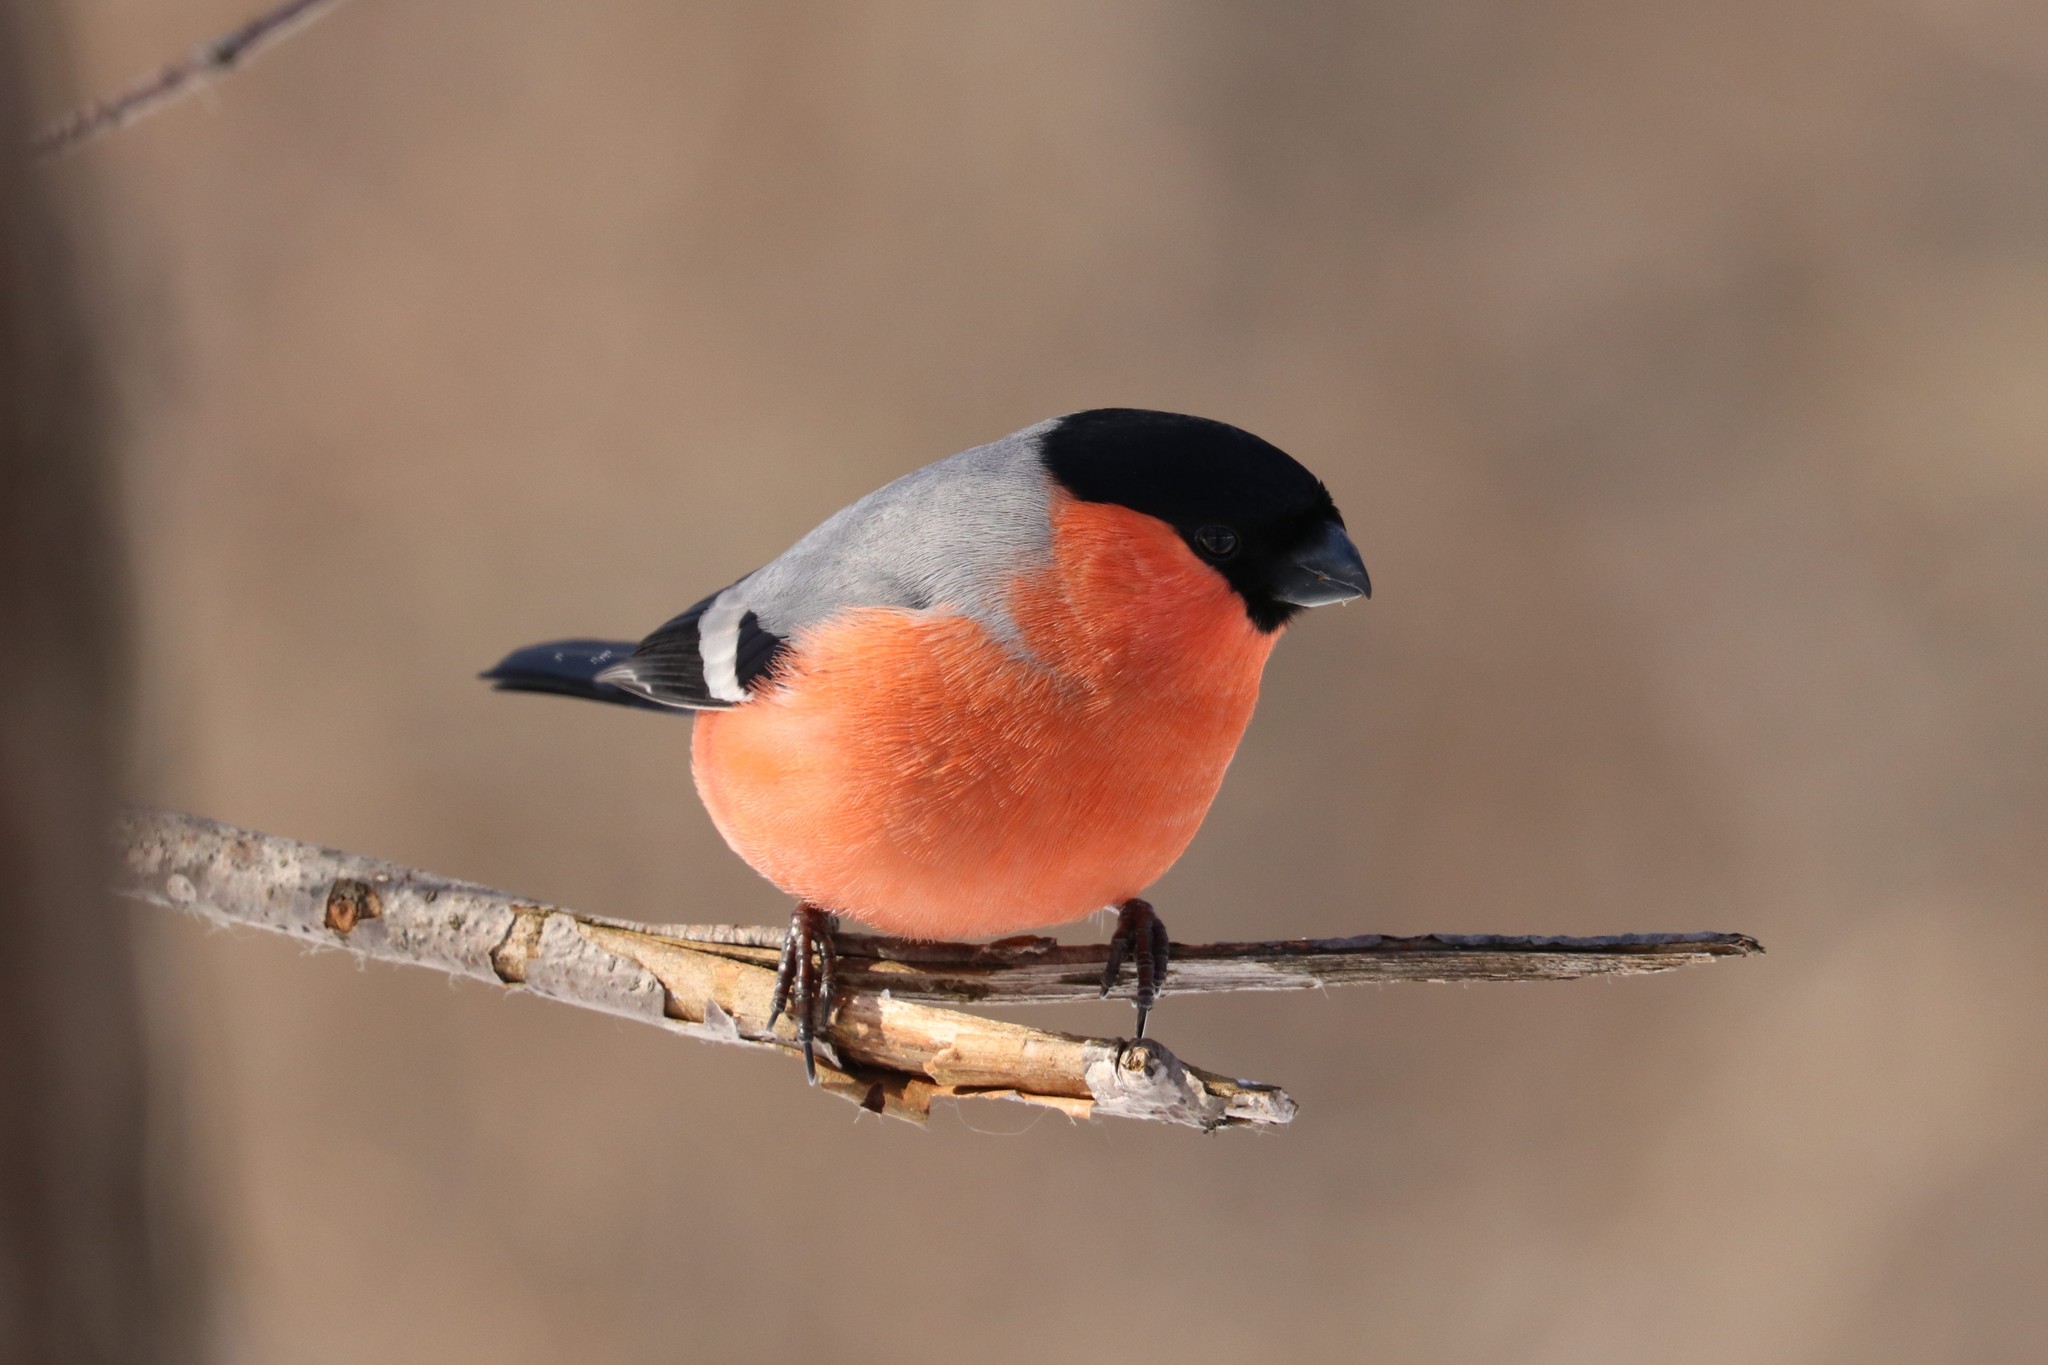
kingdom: Animalia
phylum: Chordata
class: Aves
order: Passeriformes
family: Fringillidae
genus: Pyrrhula
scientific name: Pyrrhula pyrrhula
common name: Eurasian bullfinch
